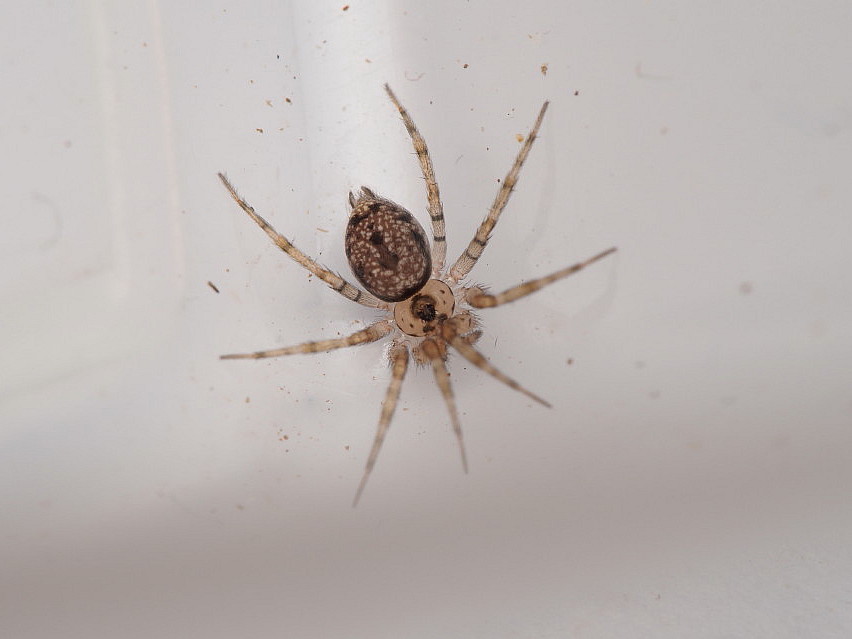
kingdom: Animalia
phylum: Arthropoda
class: Arachnida
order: Araneae
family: Oecobiidae
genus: Oecobius
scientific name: Oecobius navus
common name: Flatmesh weaver
